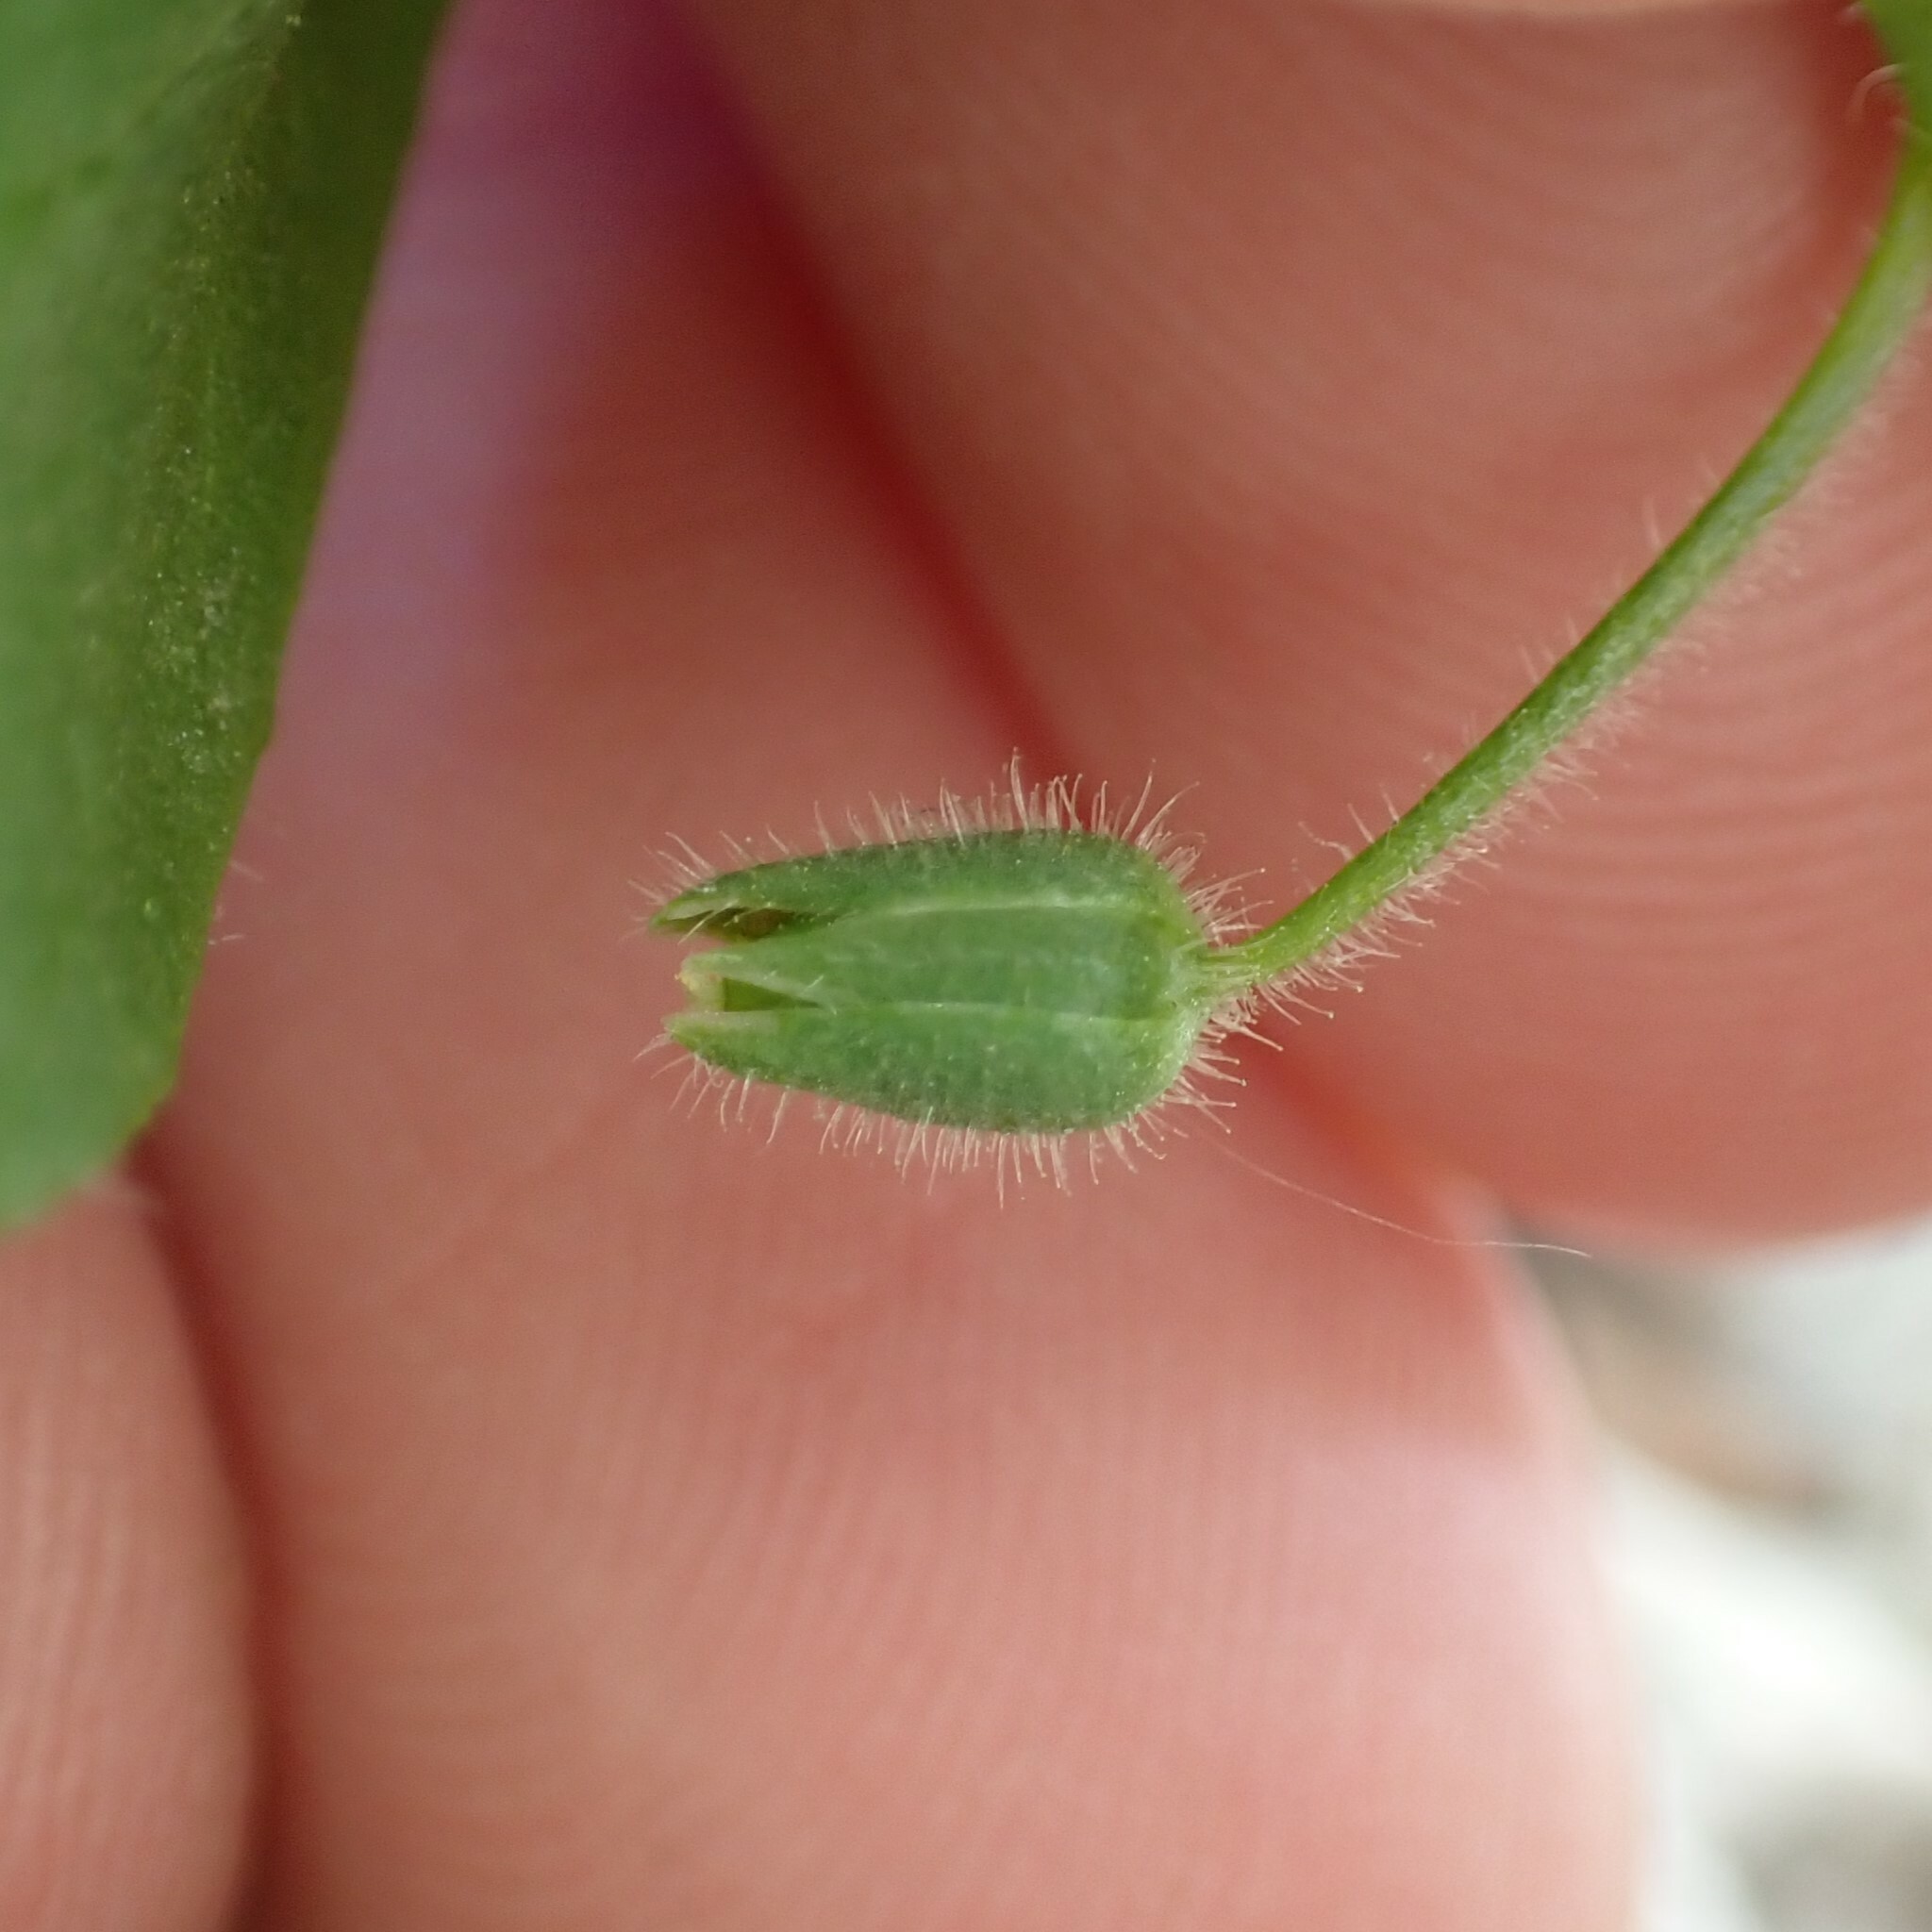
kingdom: Plantae
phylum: Tracheophyta
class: Magnoliopsida
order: Caryophyllales
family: Caryophyllaceae
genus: Stellaria
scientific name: Stellaria apetala
